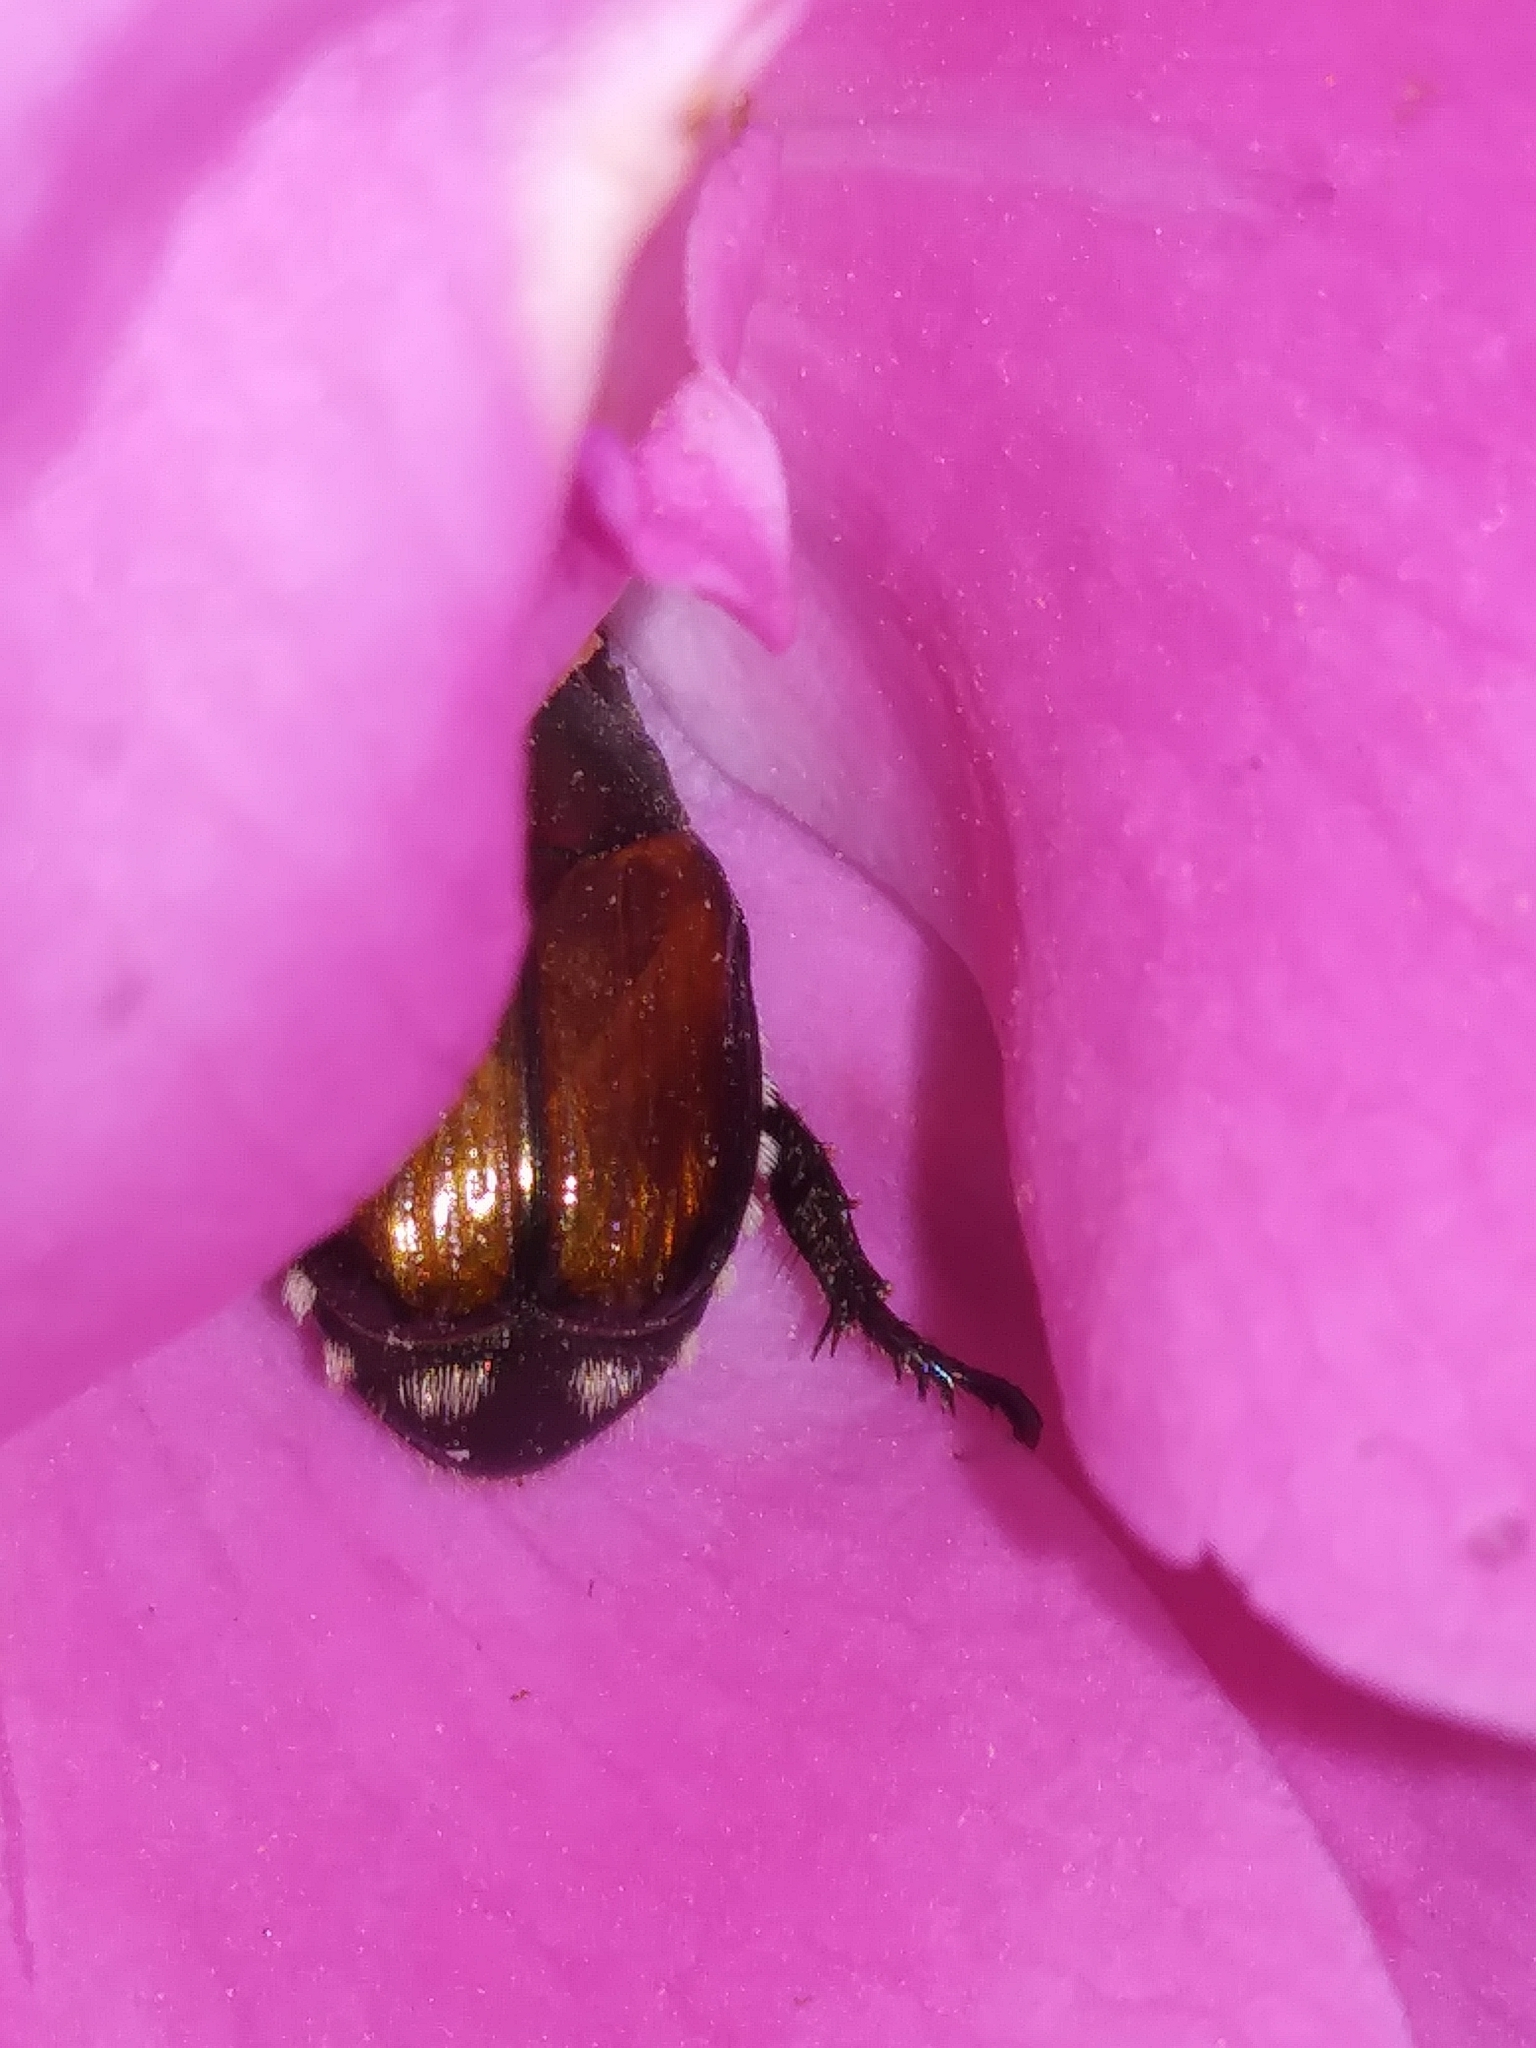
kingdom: Animalia
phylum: Arthropoda
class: Insecta
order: Coleoptera
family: Scarabaeidae
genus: Popillia
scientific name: Popillia japonica
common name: Japanese beetle
